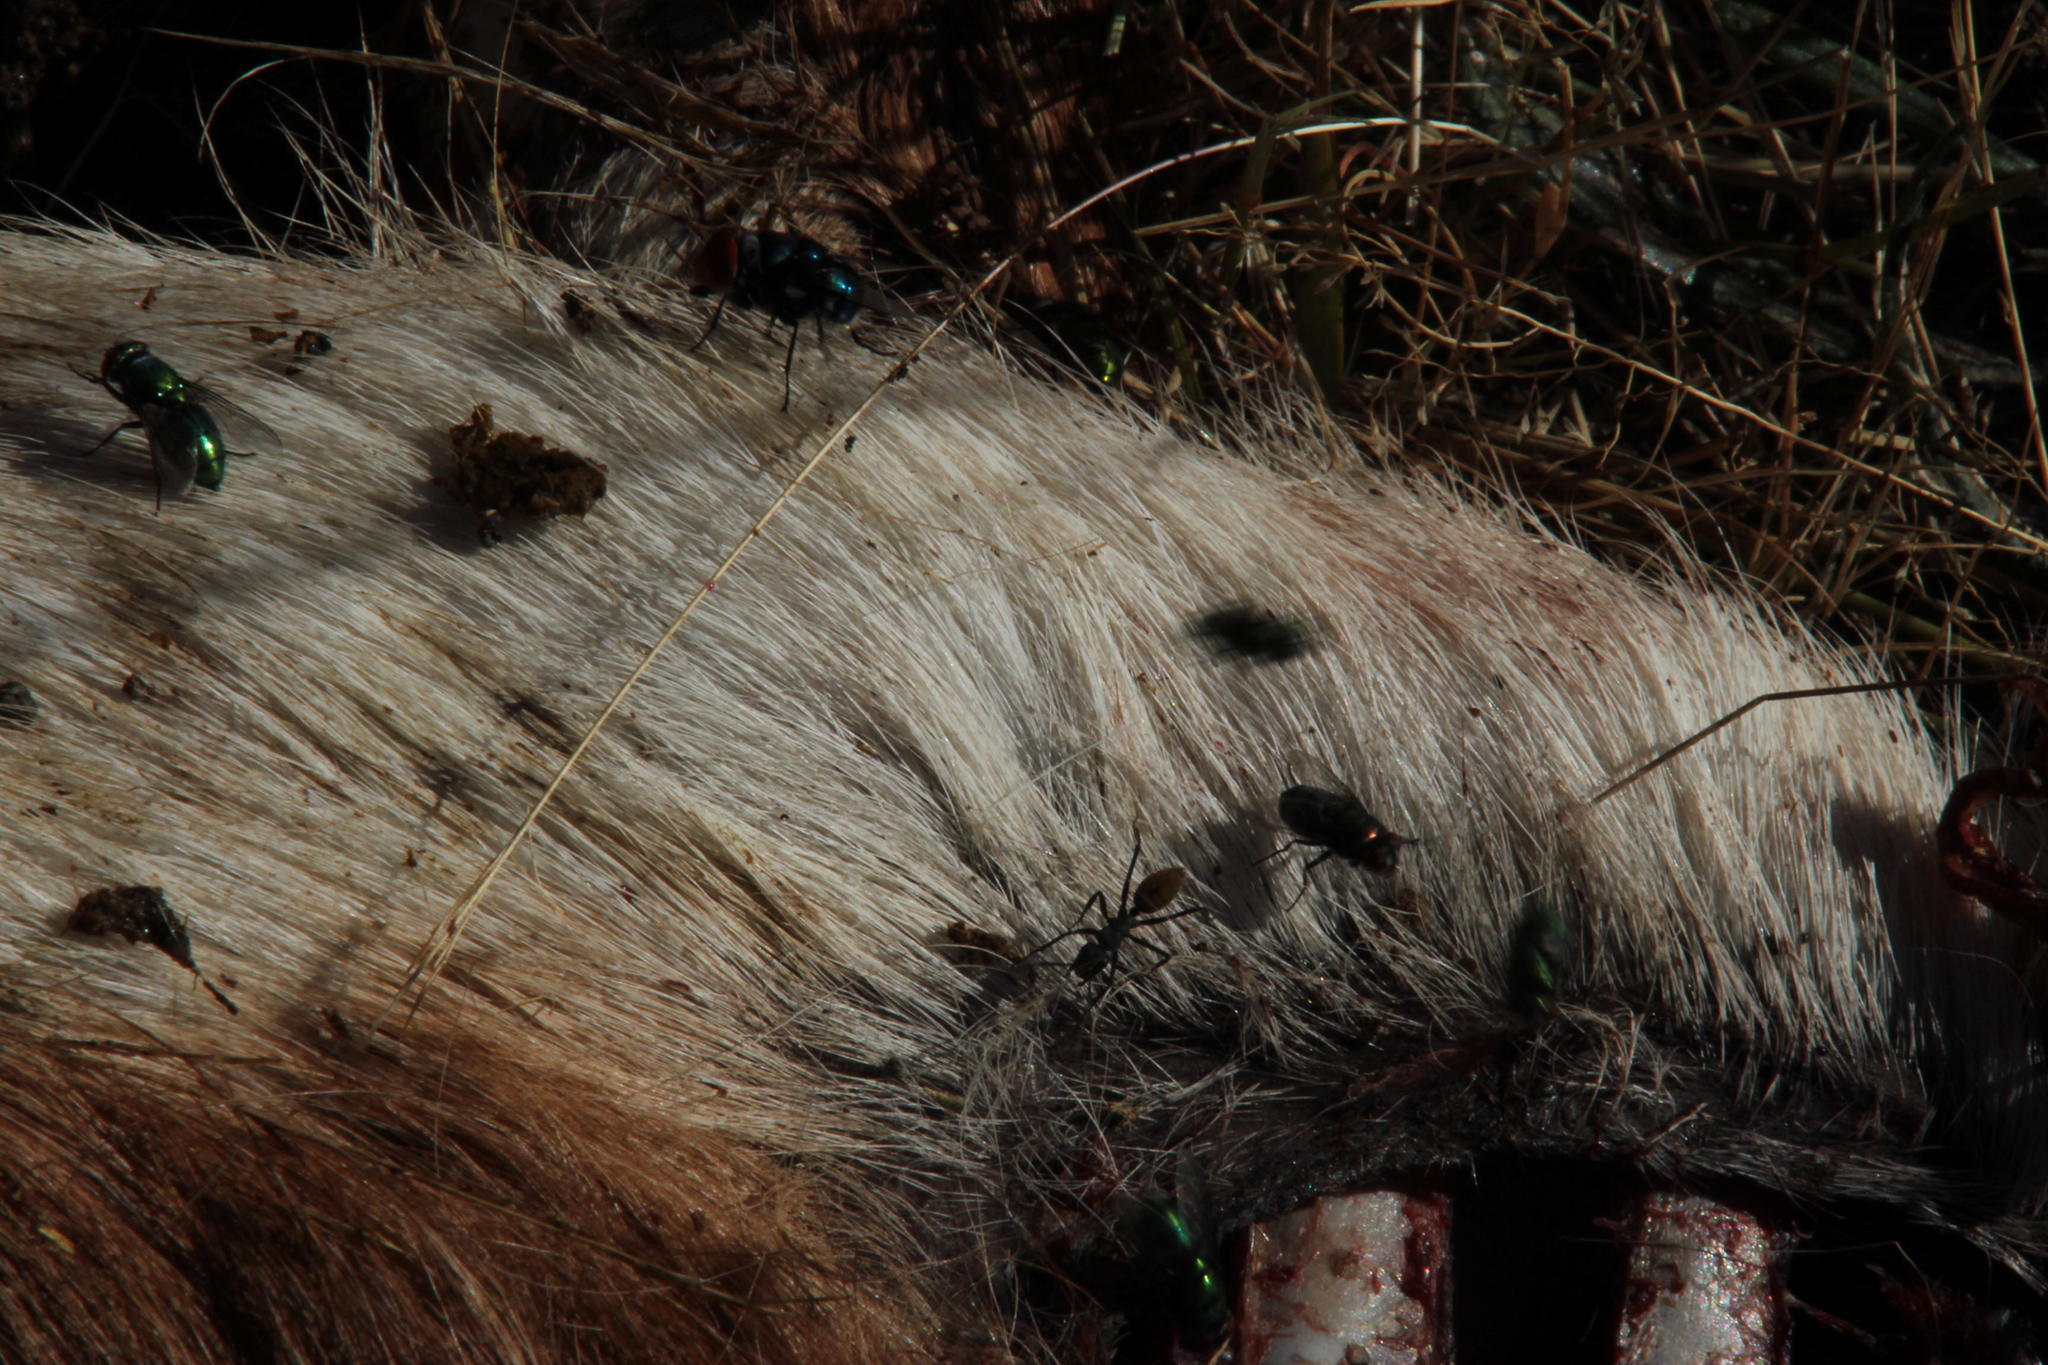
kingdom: Animalia
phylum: Chordata
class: Mammalia
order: Artiodactyla
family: Bovidae
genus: Raphicerus
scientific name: Raphicerus campestris
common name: Steenbok
